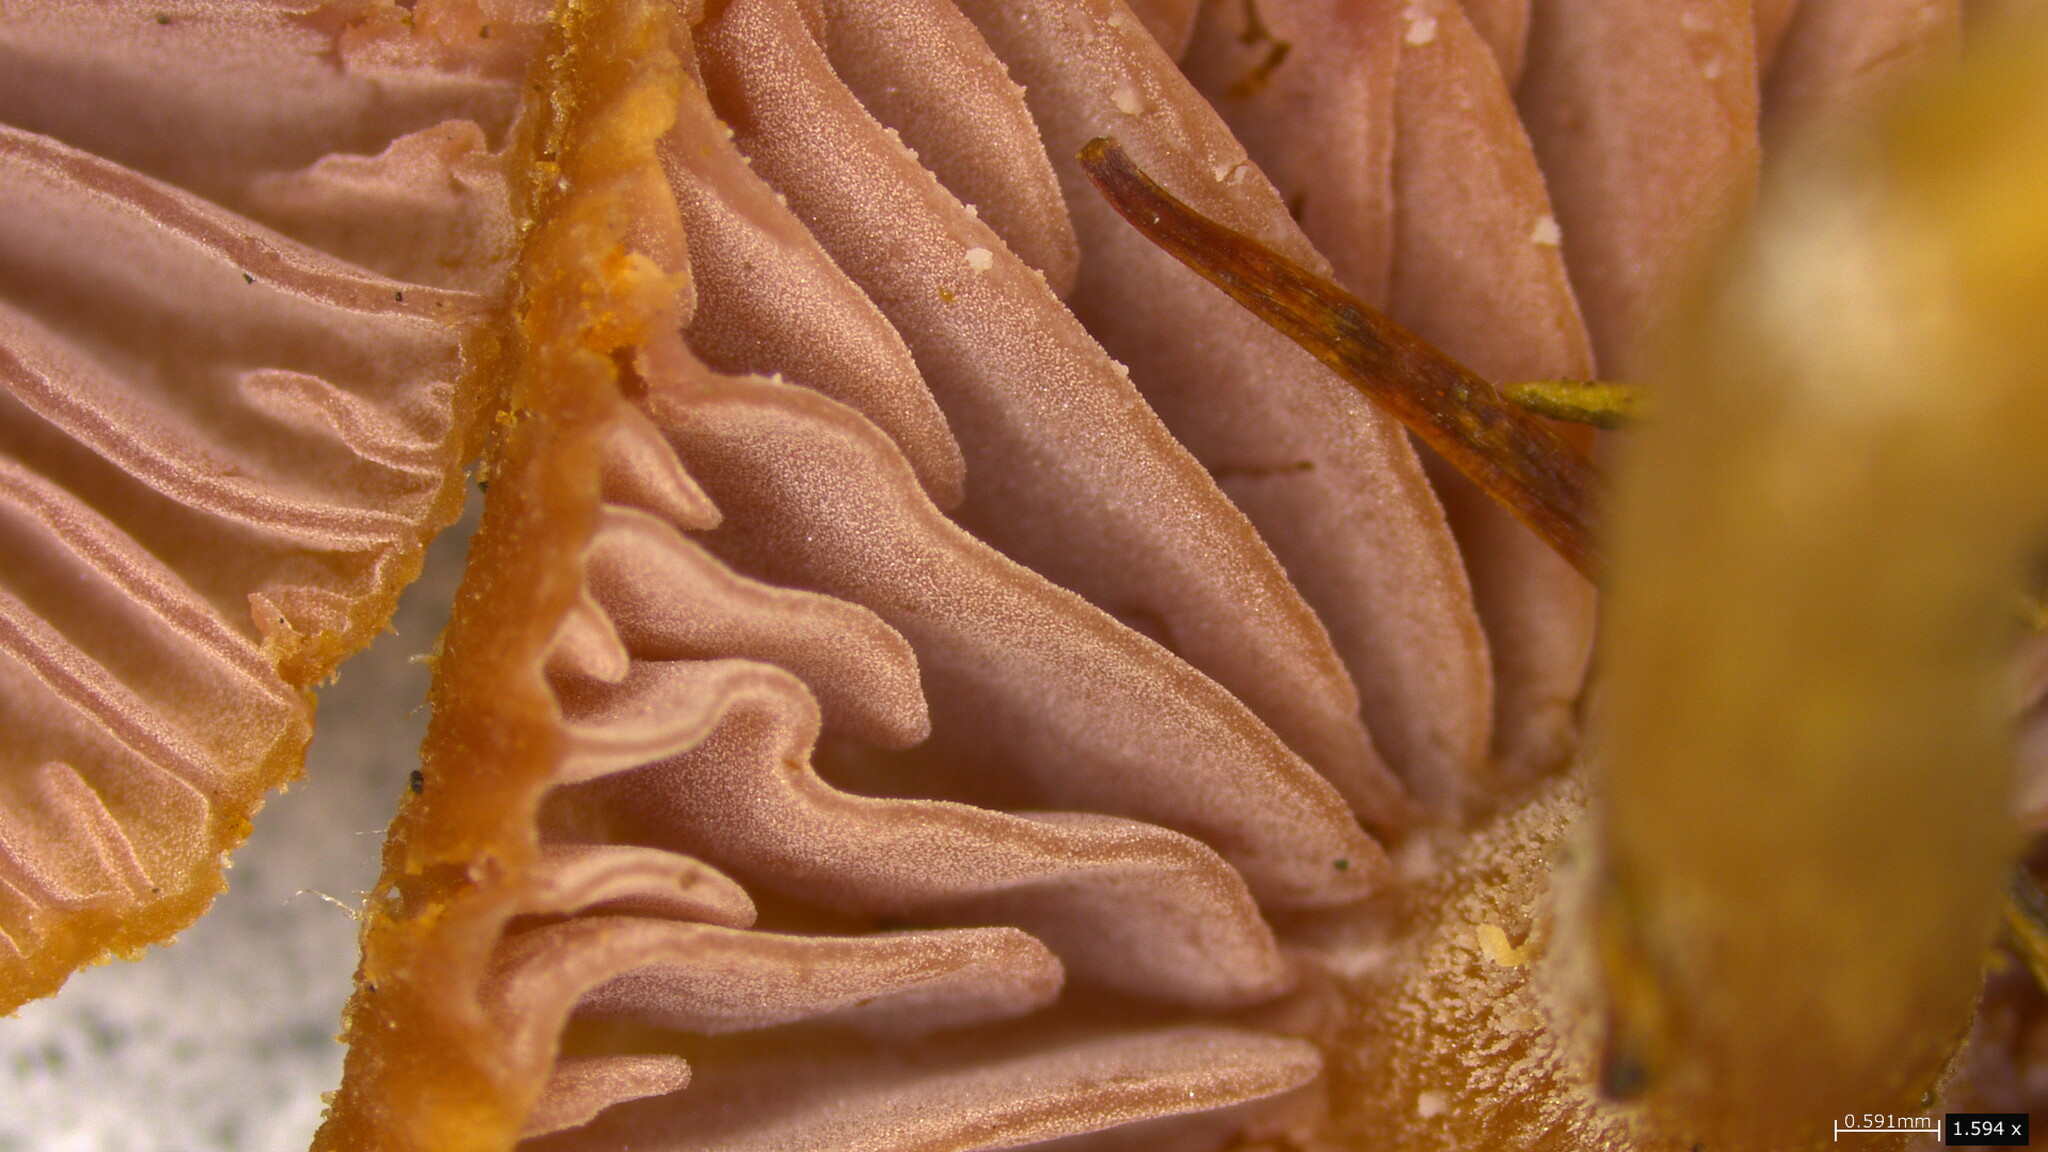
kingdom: Fungi
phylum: Basidiomycota
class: Agaricomycetes
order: Agaricales
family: Hydnangiaceae
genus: Laccaria
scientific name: Laccaria japonica
